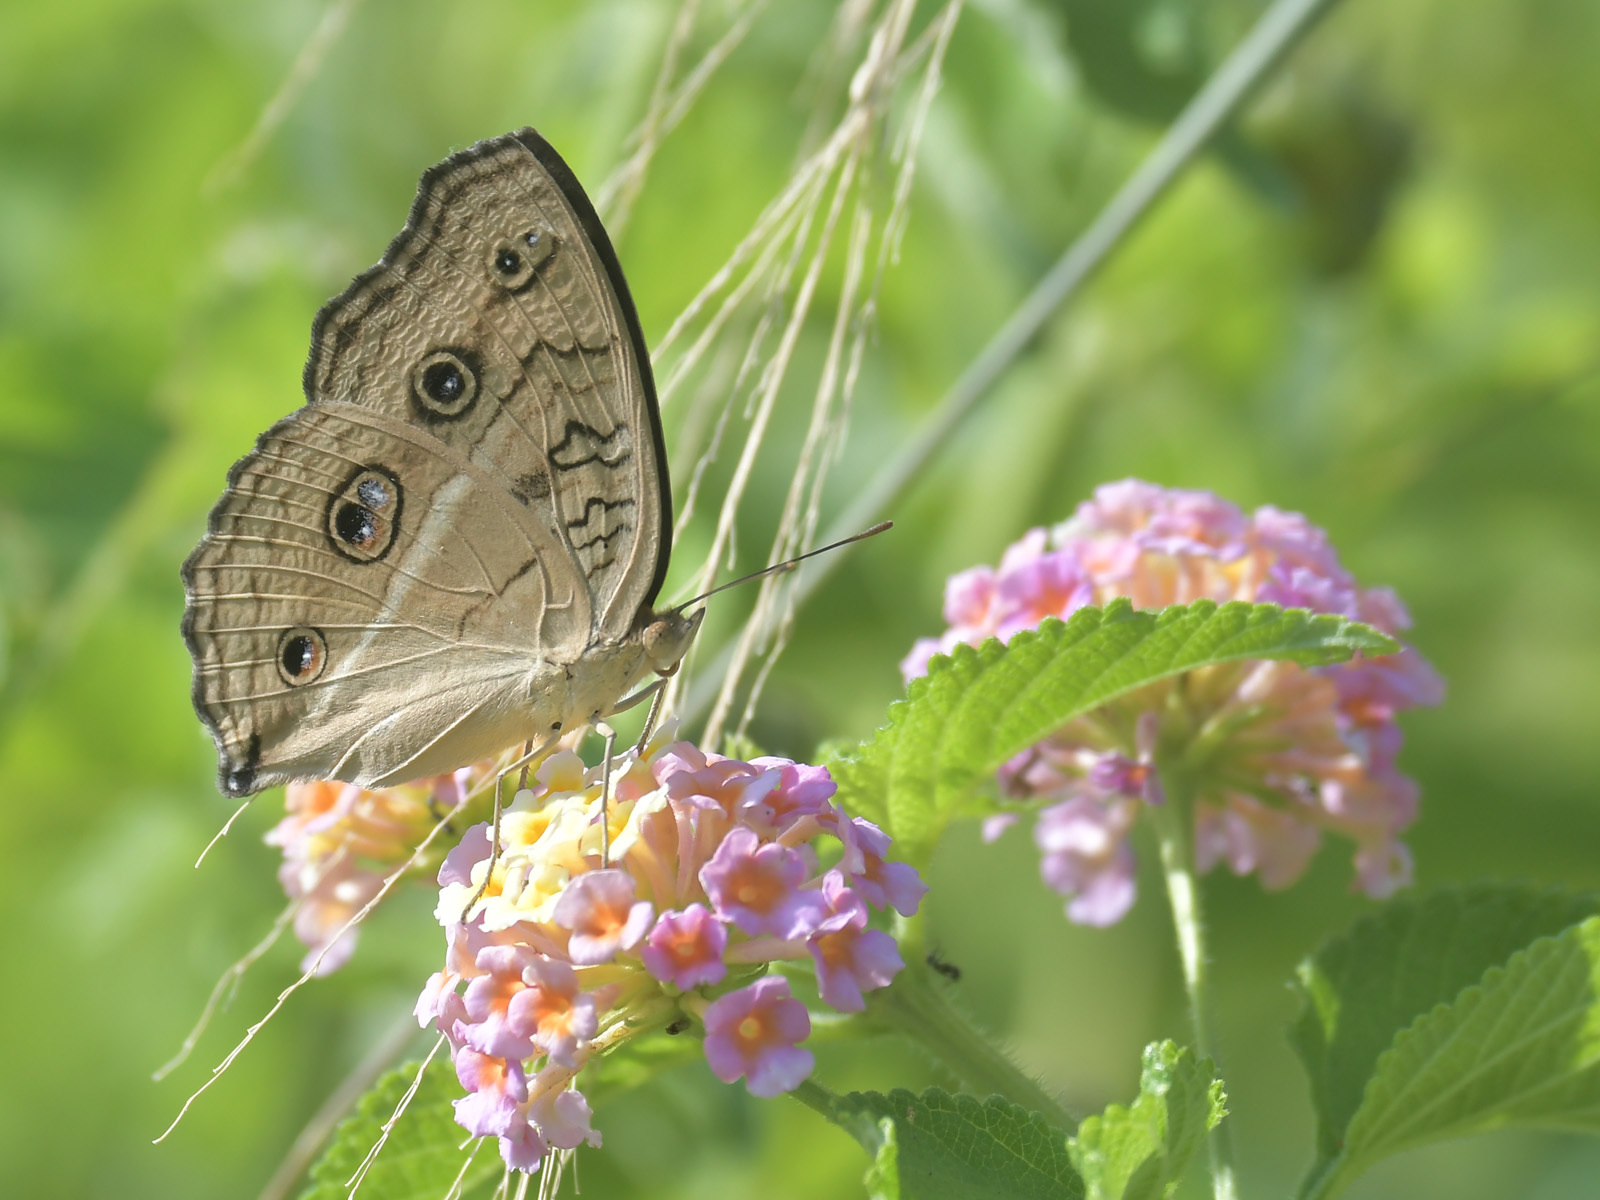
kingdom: Animalia
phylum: Arthropoda
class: Insecta
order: Lepidoptera
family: Nymphalidae
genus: Junonia
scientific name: Junonia almana
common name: Peacock pansy
